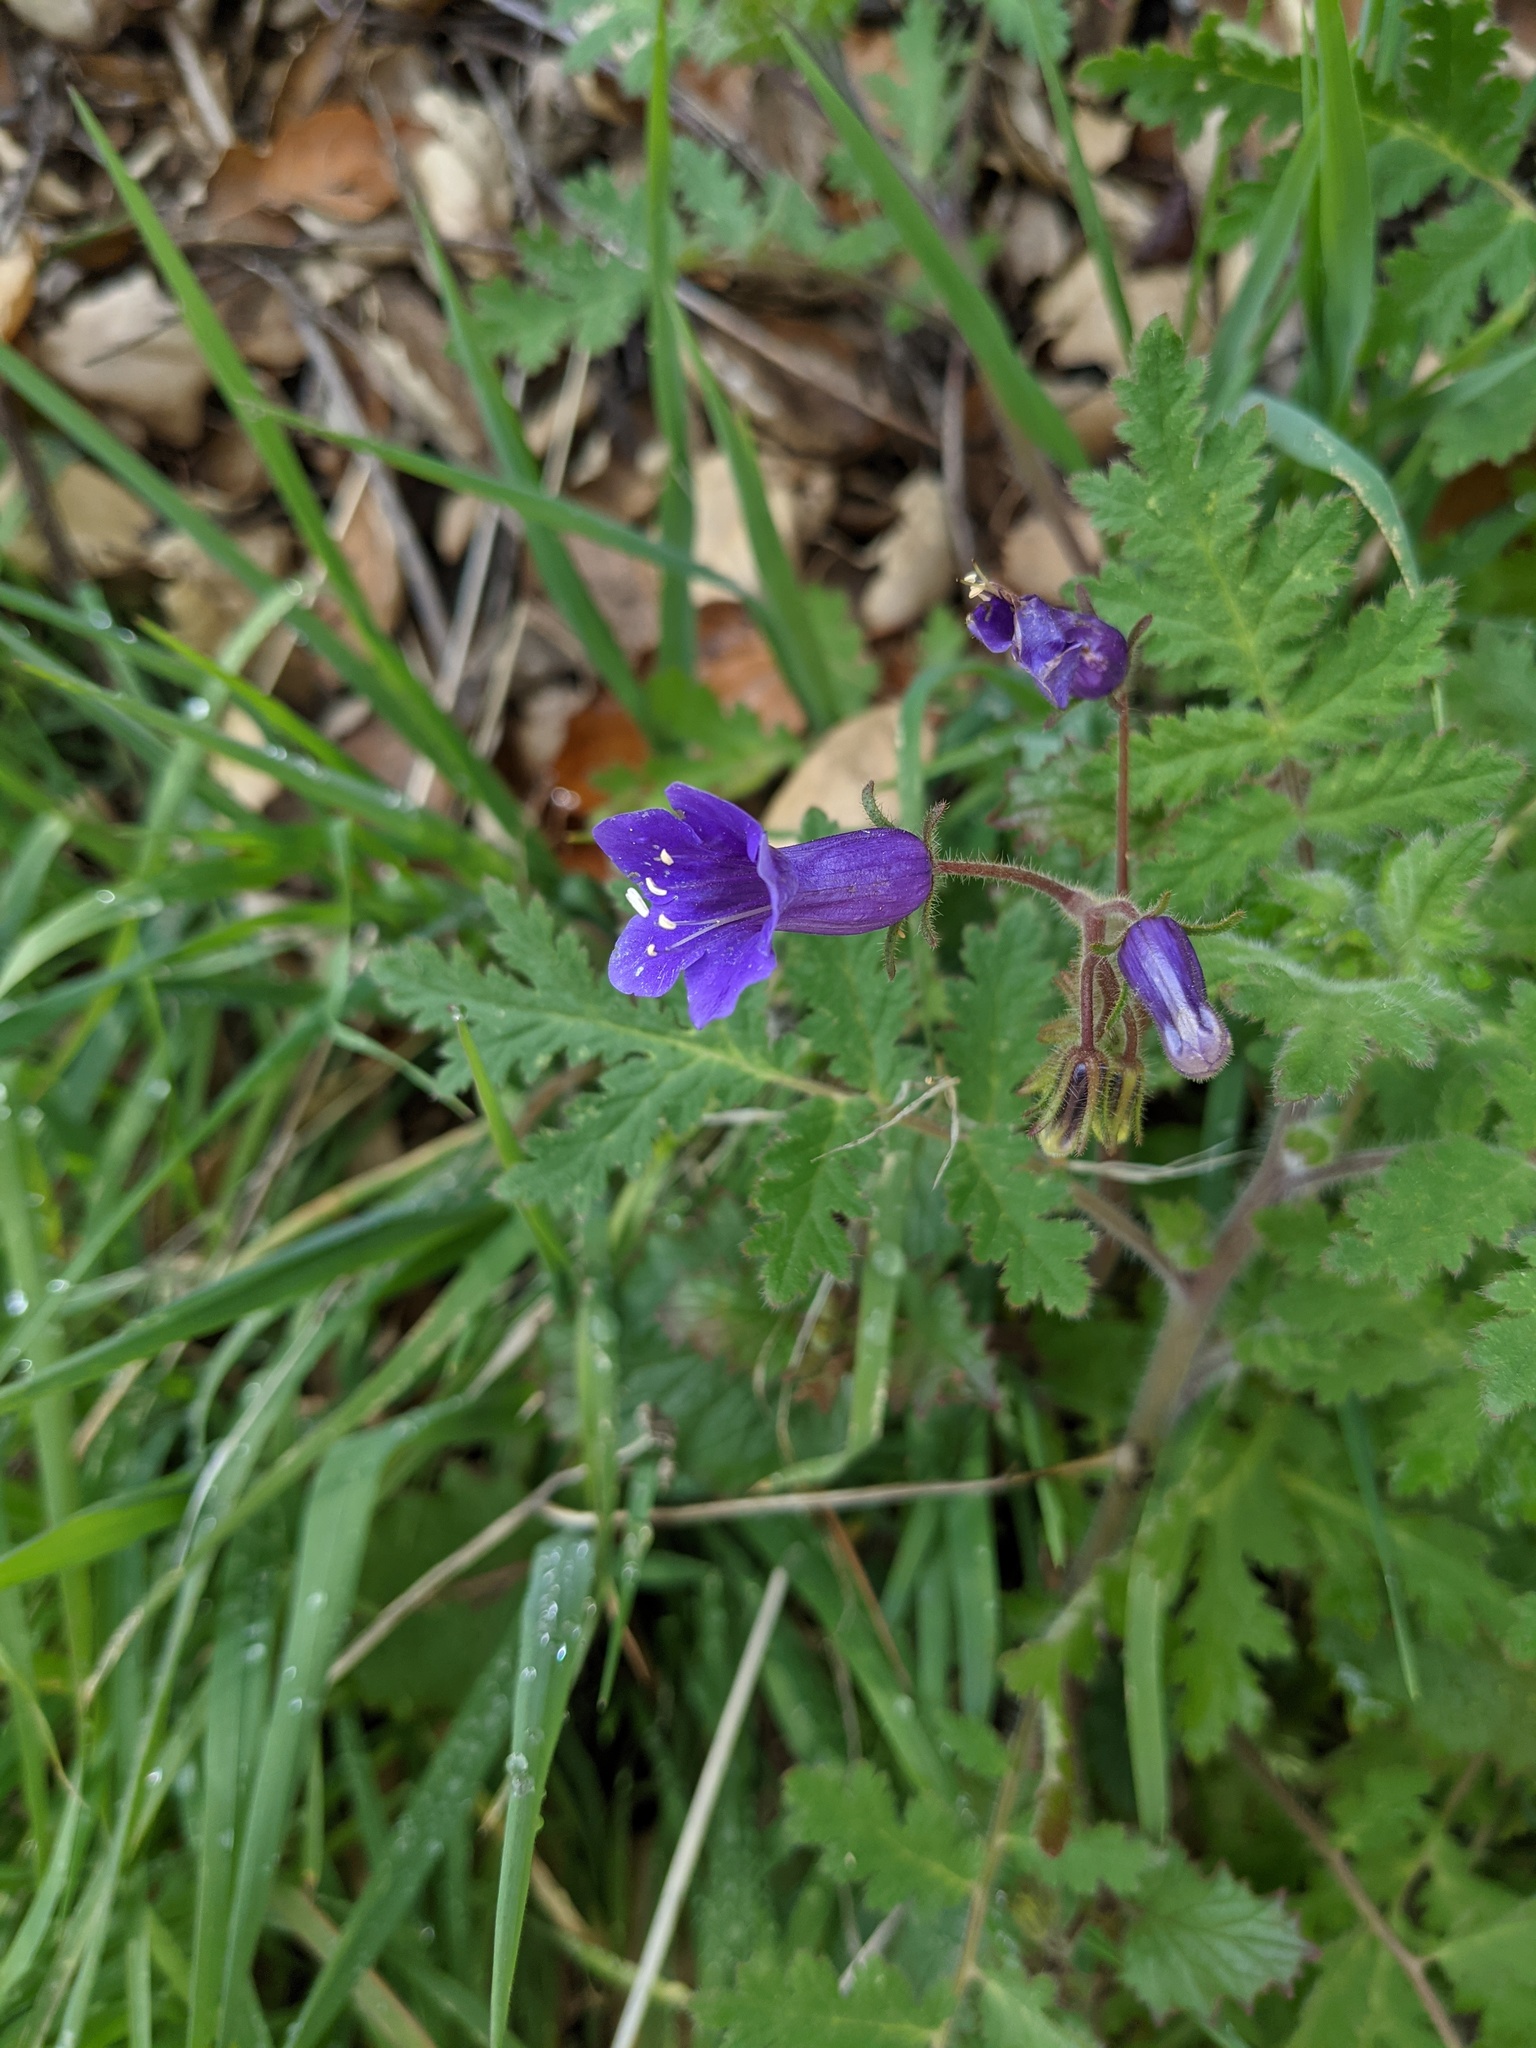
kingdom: Plantae
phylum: Tracheophyta
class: Magnoliopsida
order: Boraginales
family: Hydrophyllaceae
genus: Phacelia
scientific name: Phacelia minor
